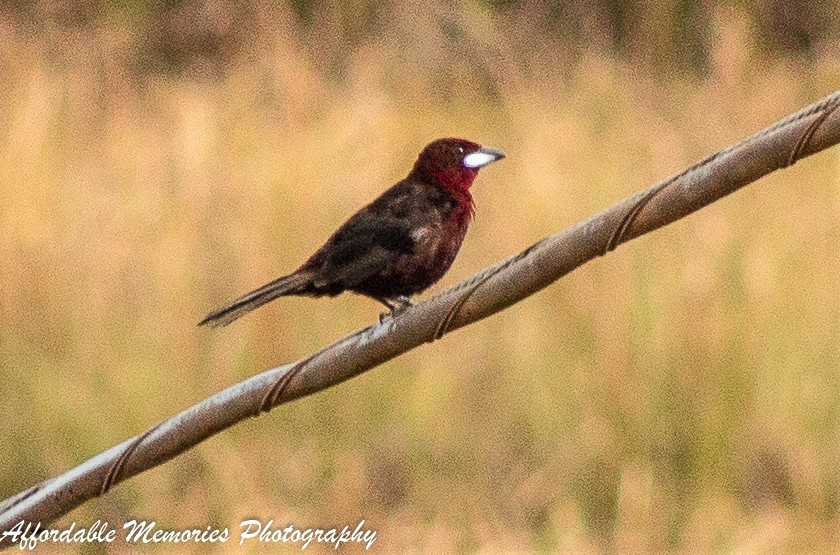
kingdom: Animalia
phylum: Chordata
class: Aves
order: Passeriformes
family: Thraupidae
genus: Ramphocelus
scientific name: Ramphocelus carbo
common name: Silver-beaked tanager
